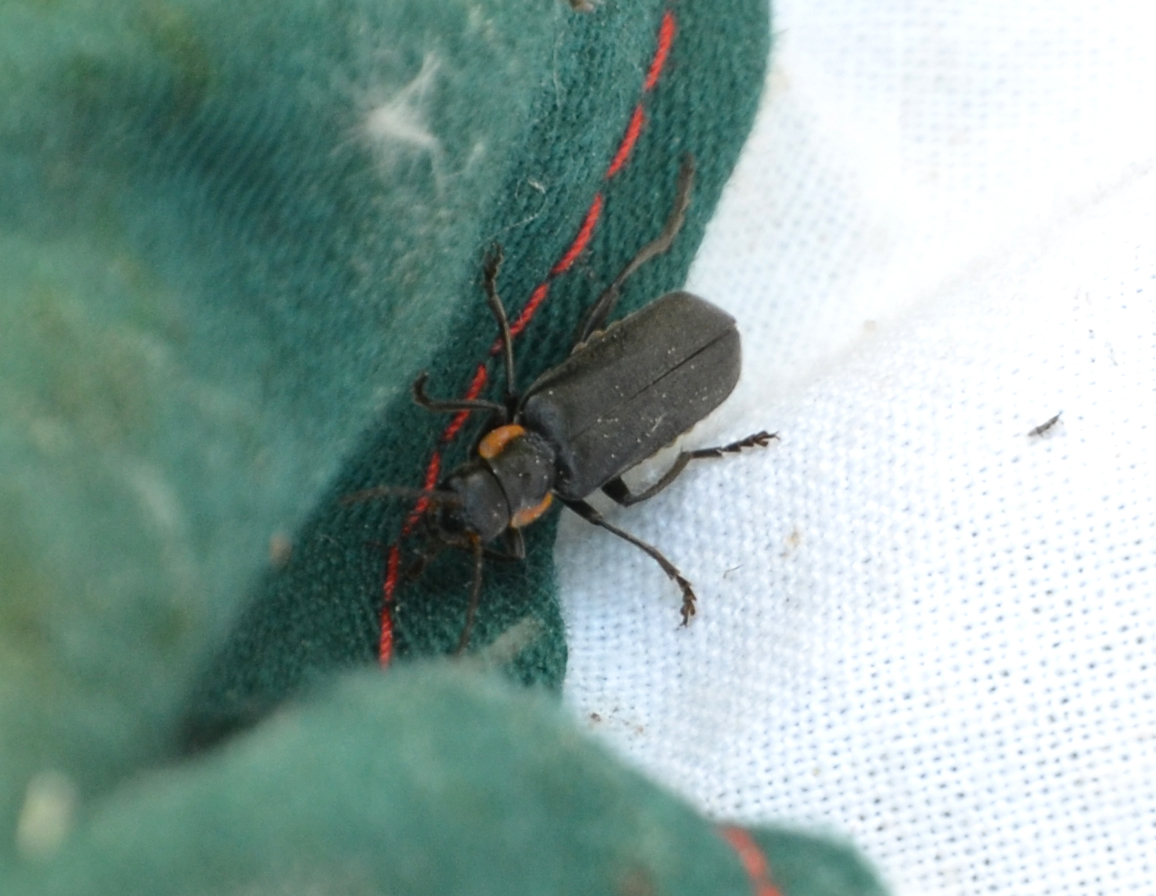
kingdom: Animalia
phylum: Arthropoda
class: Insecta
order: Coleoptera
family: Cantharidae
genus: Cantharis
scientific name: Cantharis obscura
